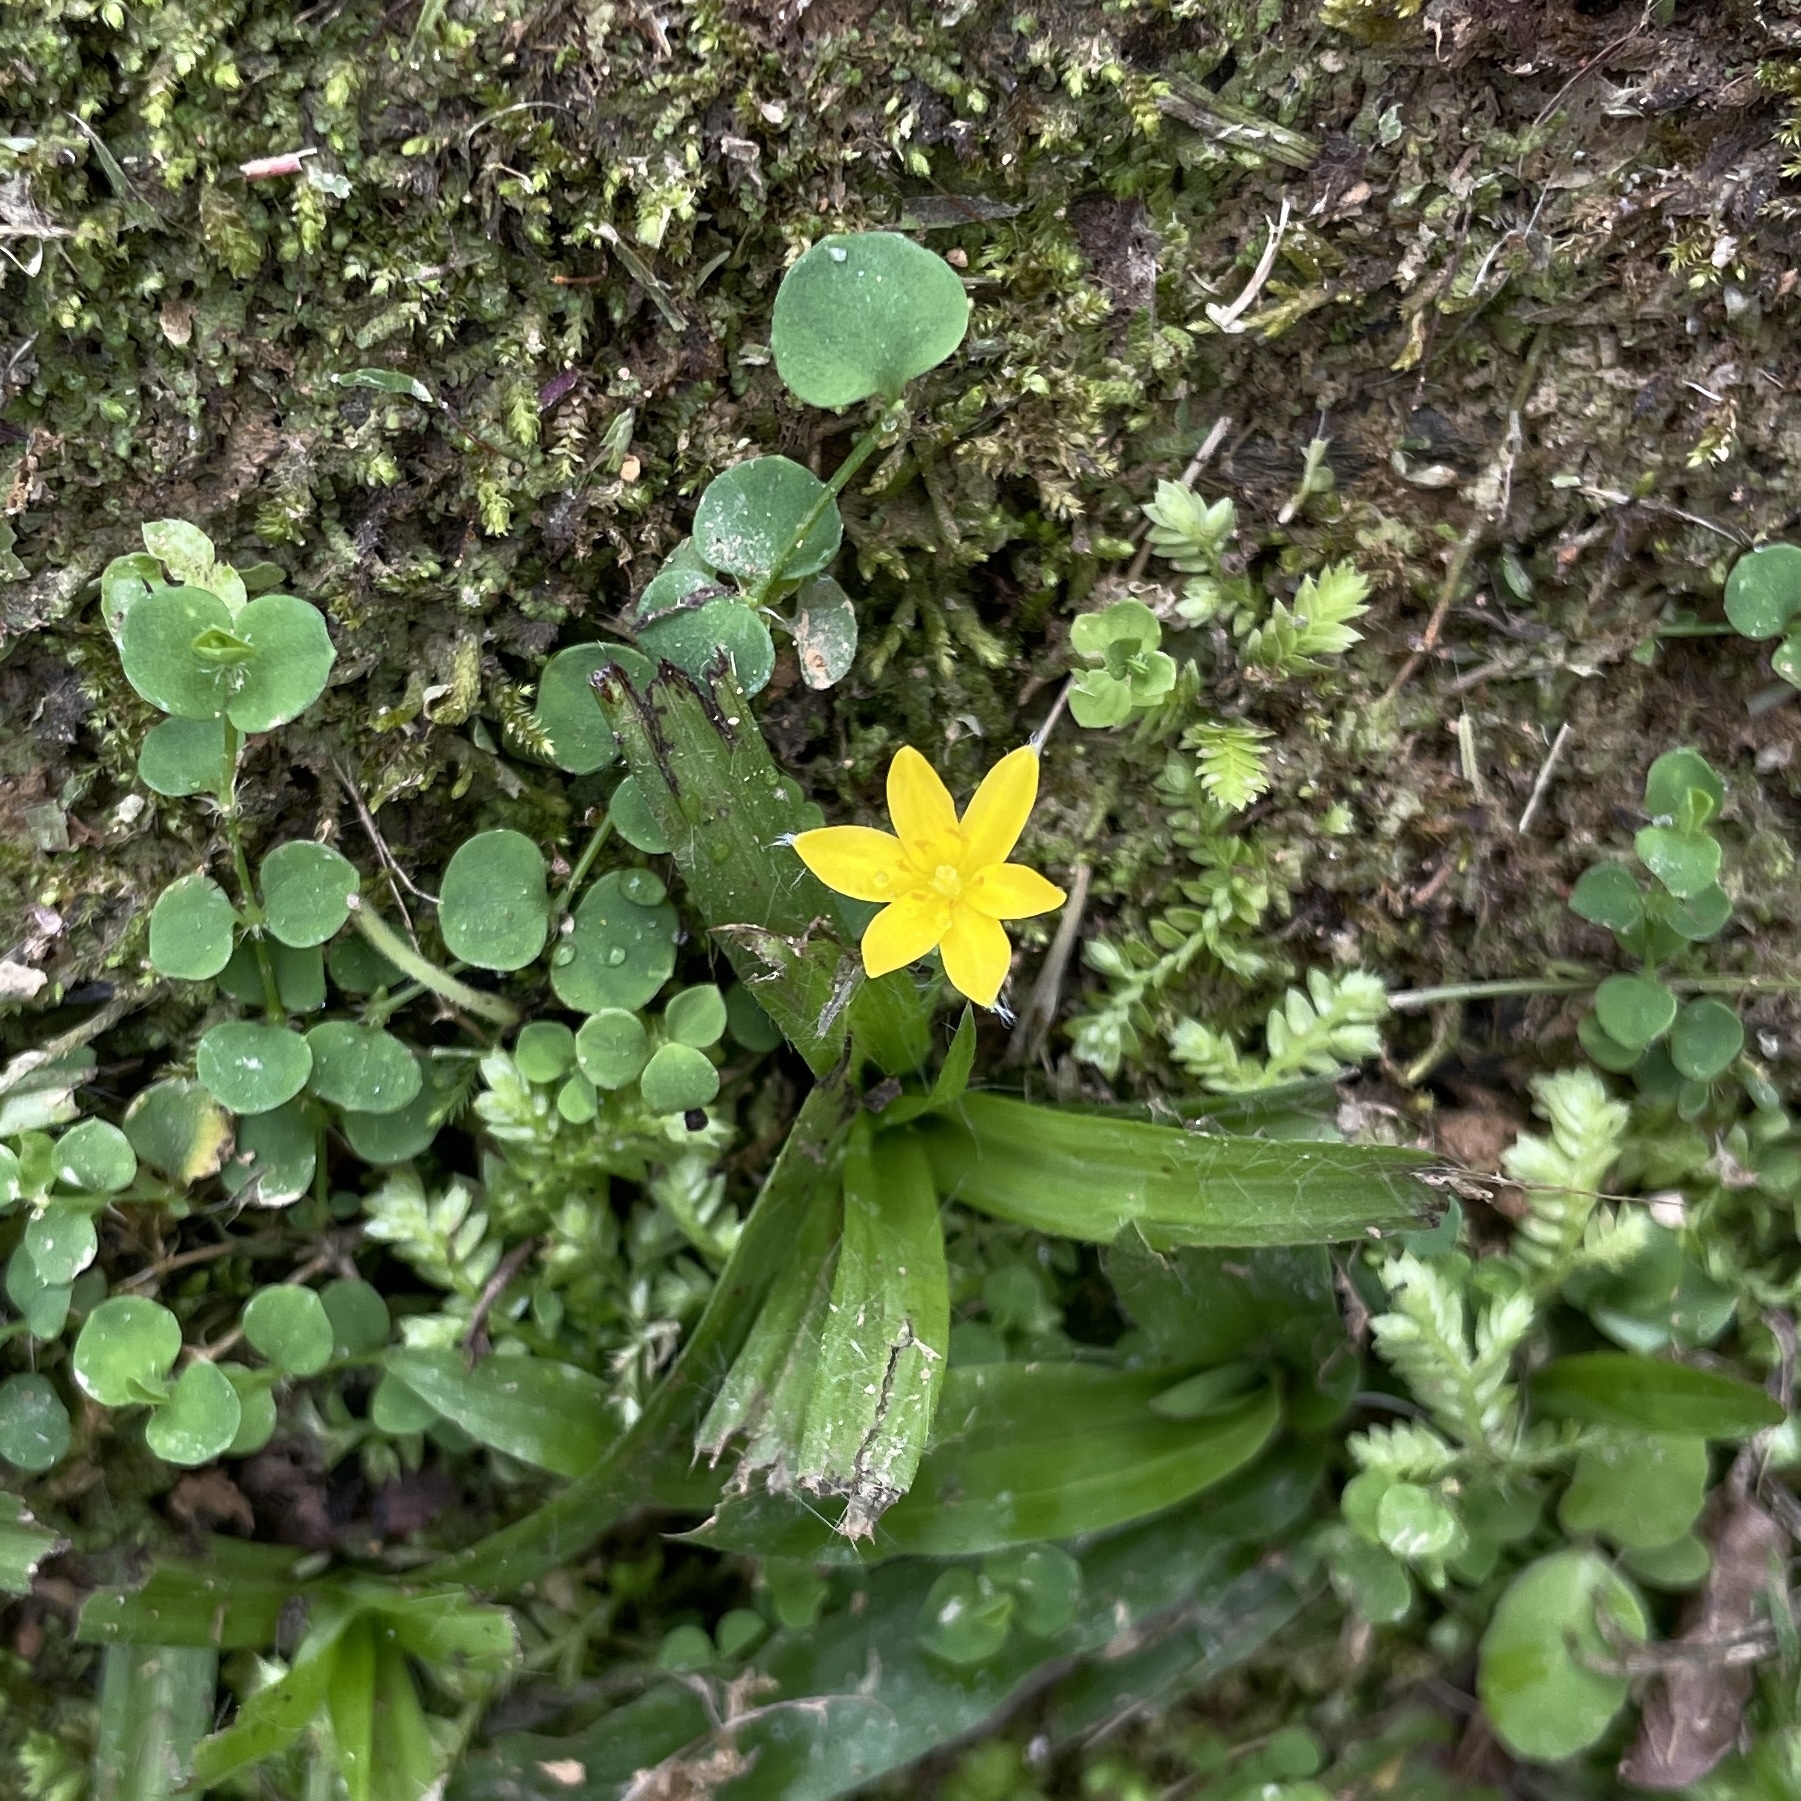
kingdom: Plantae
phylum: Tracheophyta
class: Liliopsida
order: Asparagales
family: Hypoxidaceae
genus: Hypoxis
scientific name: Hypoxis decumbens
